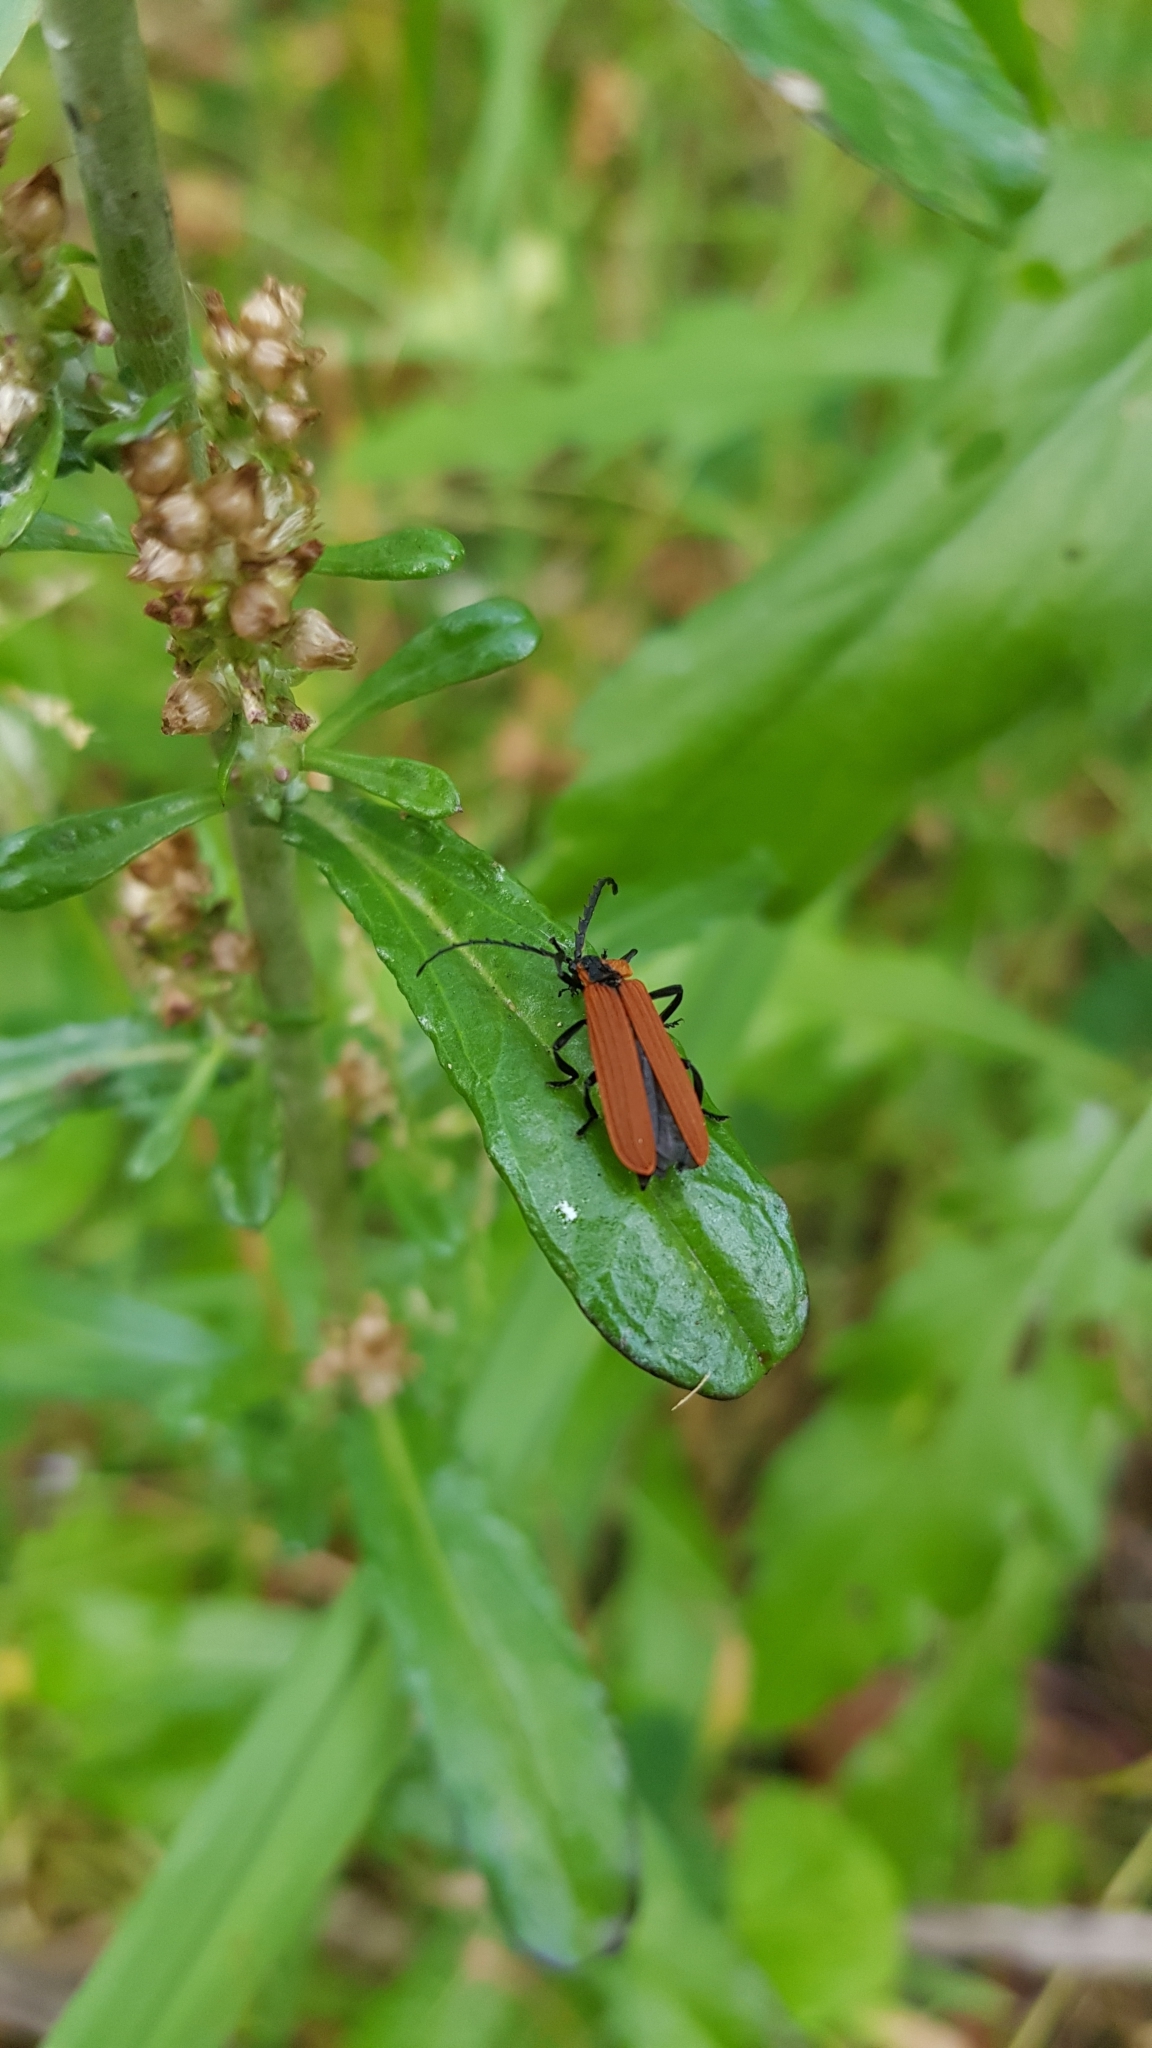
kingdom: Animalia
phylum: Arthropoda
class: Insecta
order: Coleoptera
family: Lycidae
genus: Porrostoma
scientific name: Porrostoma
